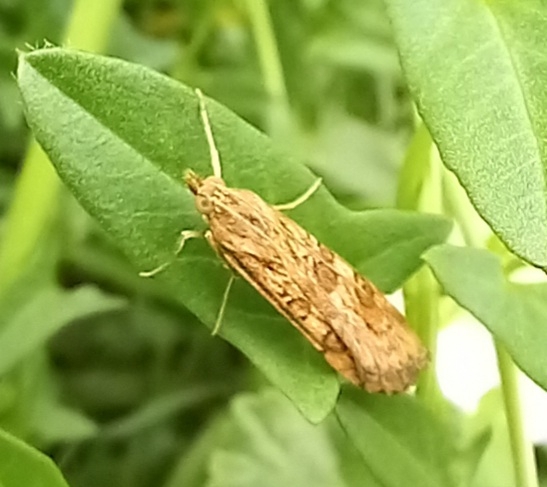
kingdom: Animalia
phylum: Arthropoda
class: Insecta
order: Lepidoptera
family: Crambidae
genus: Nomophila
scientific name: Nomophila noctuella
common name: Rush veneer
